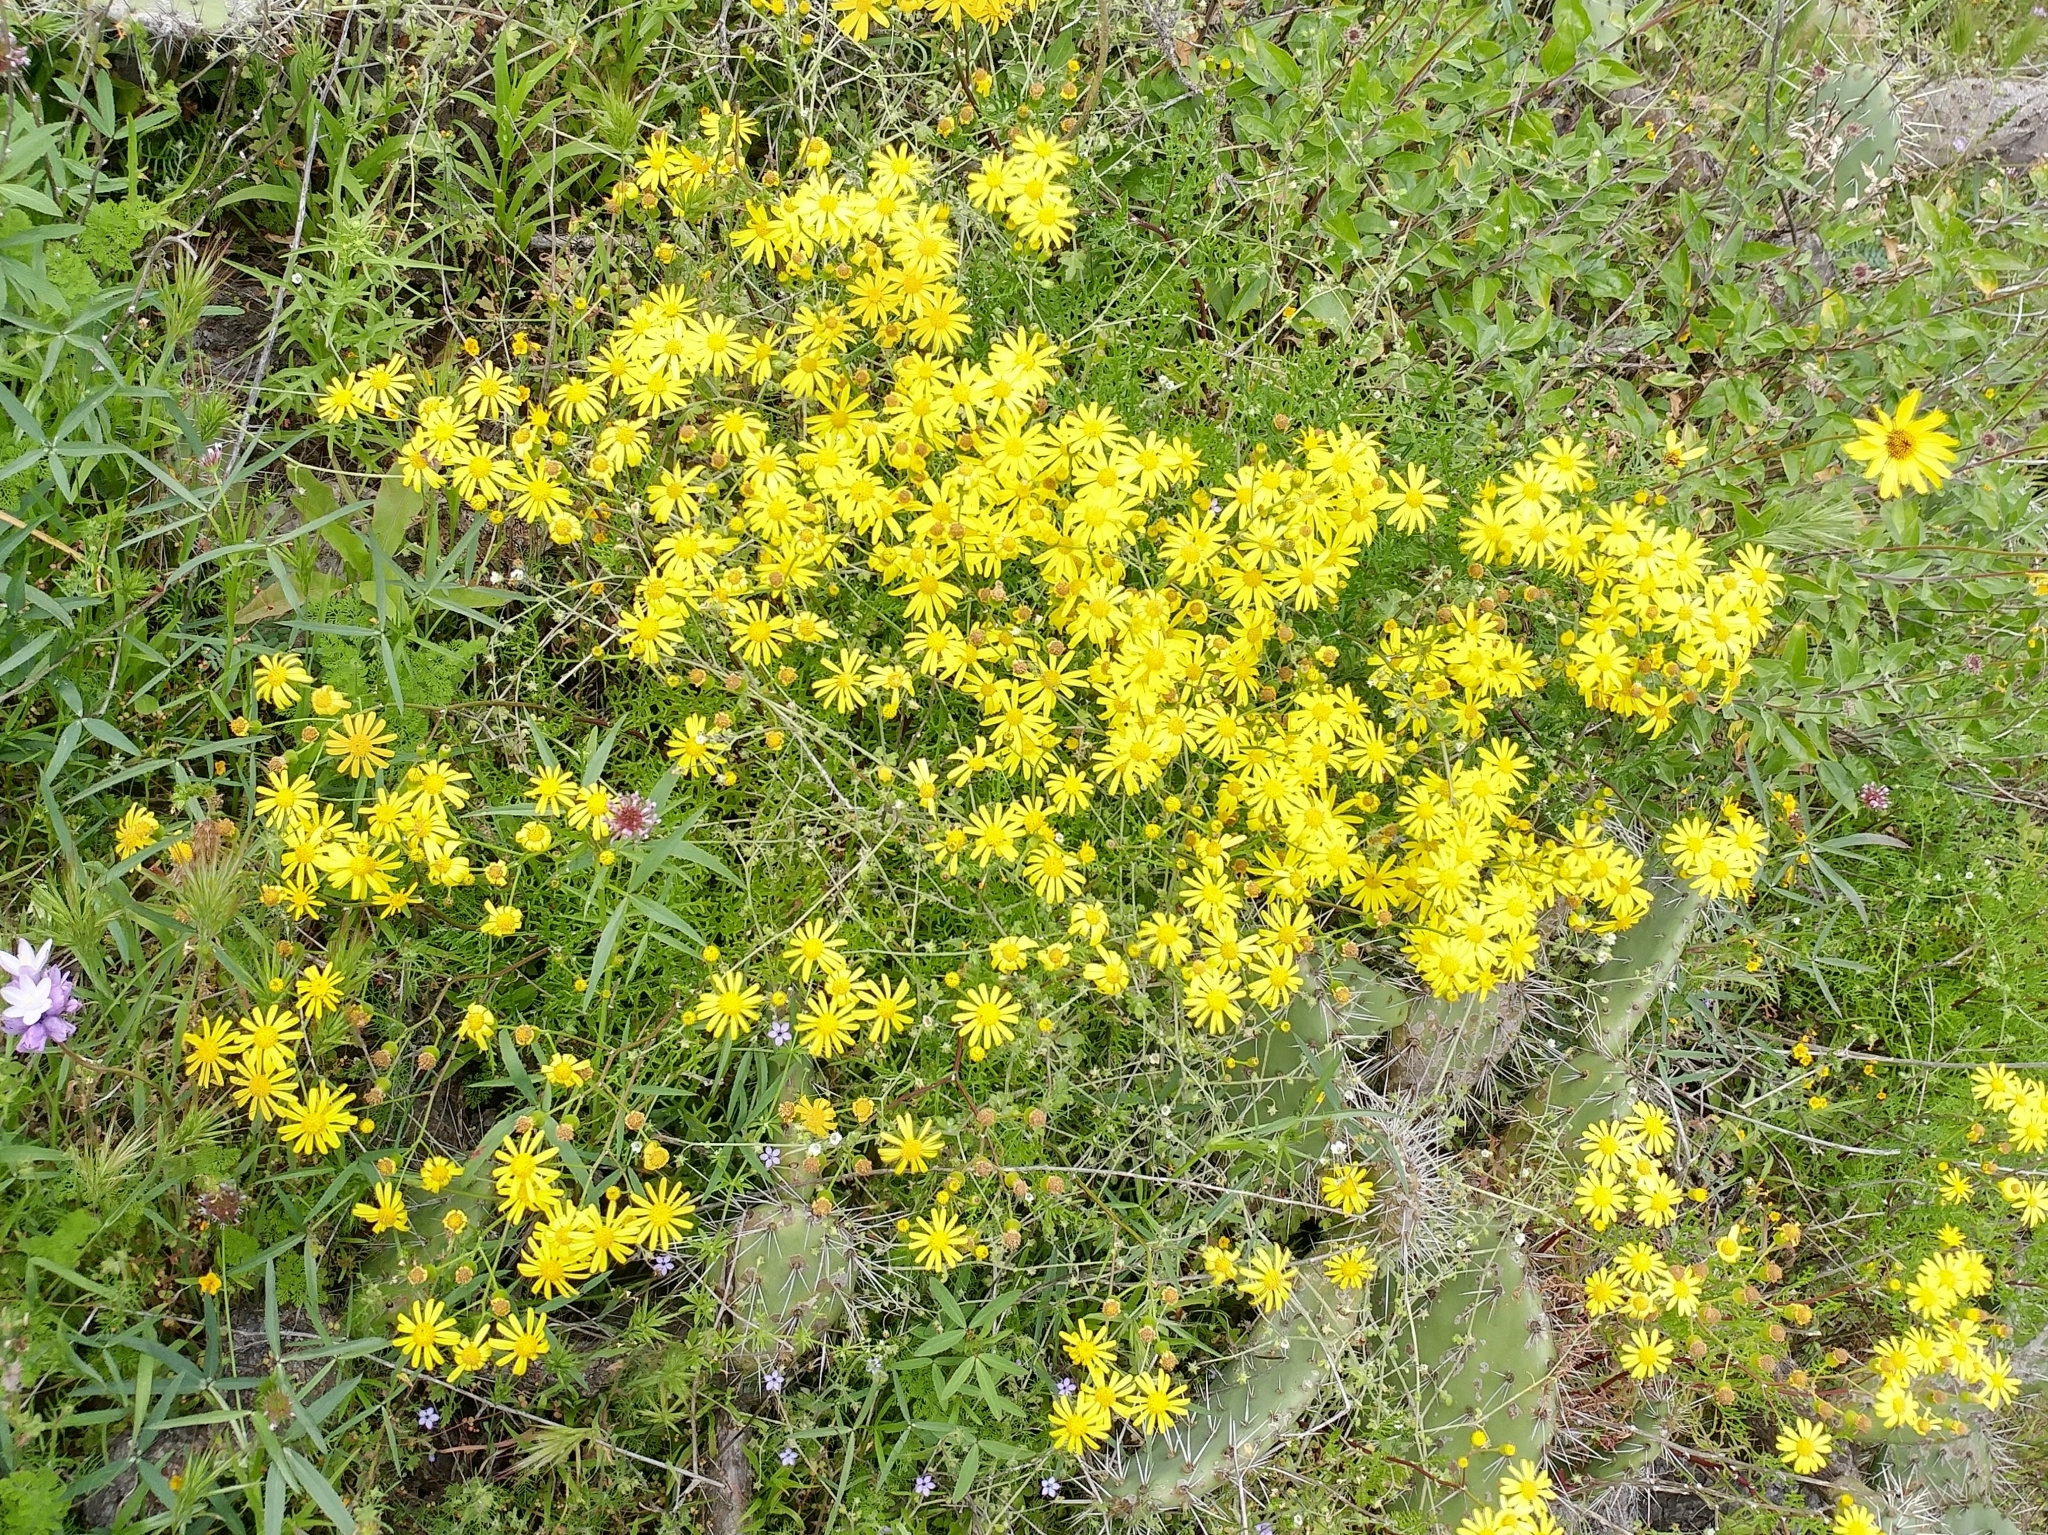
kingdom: Plantae
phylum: Tracheophyta
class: Magnoliopsida
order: Asterales
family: Asteraceae
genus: Senecio
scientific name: Senecio lyonii
